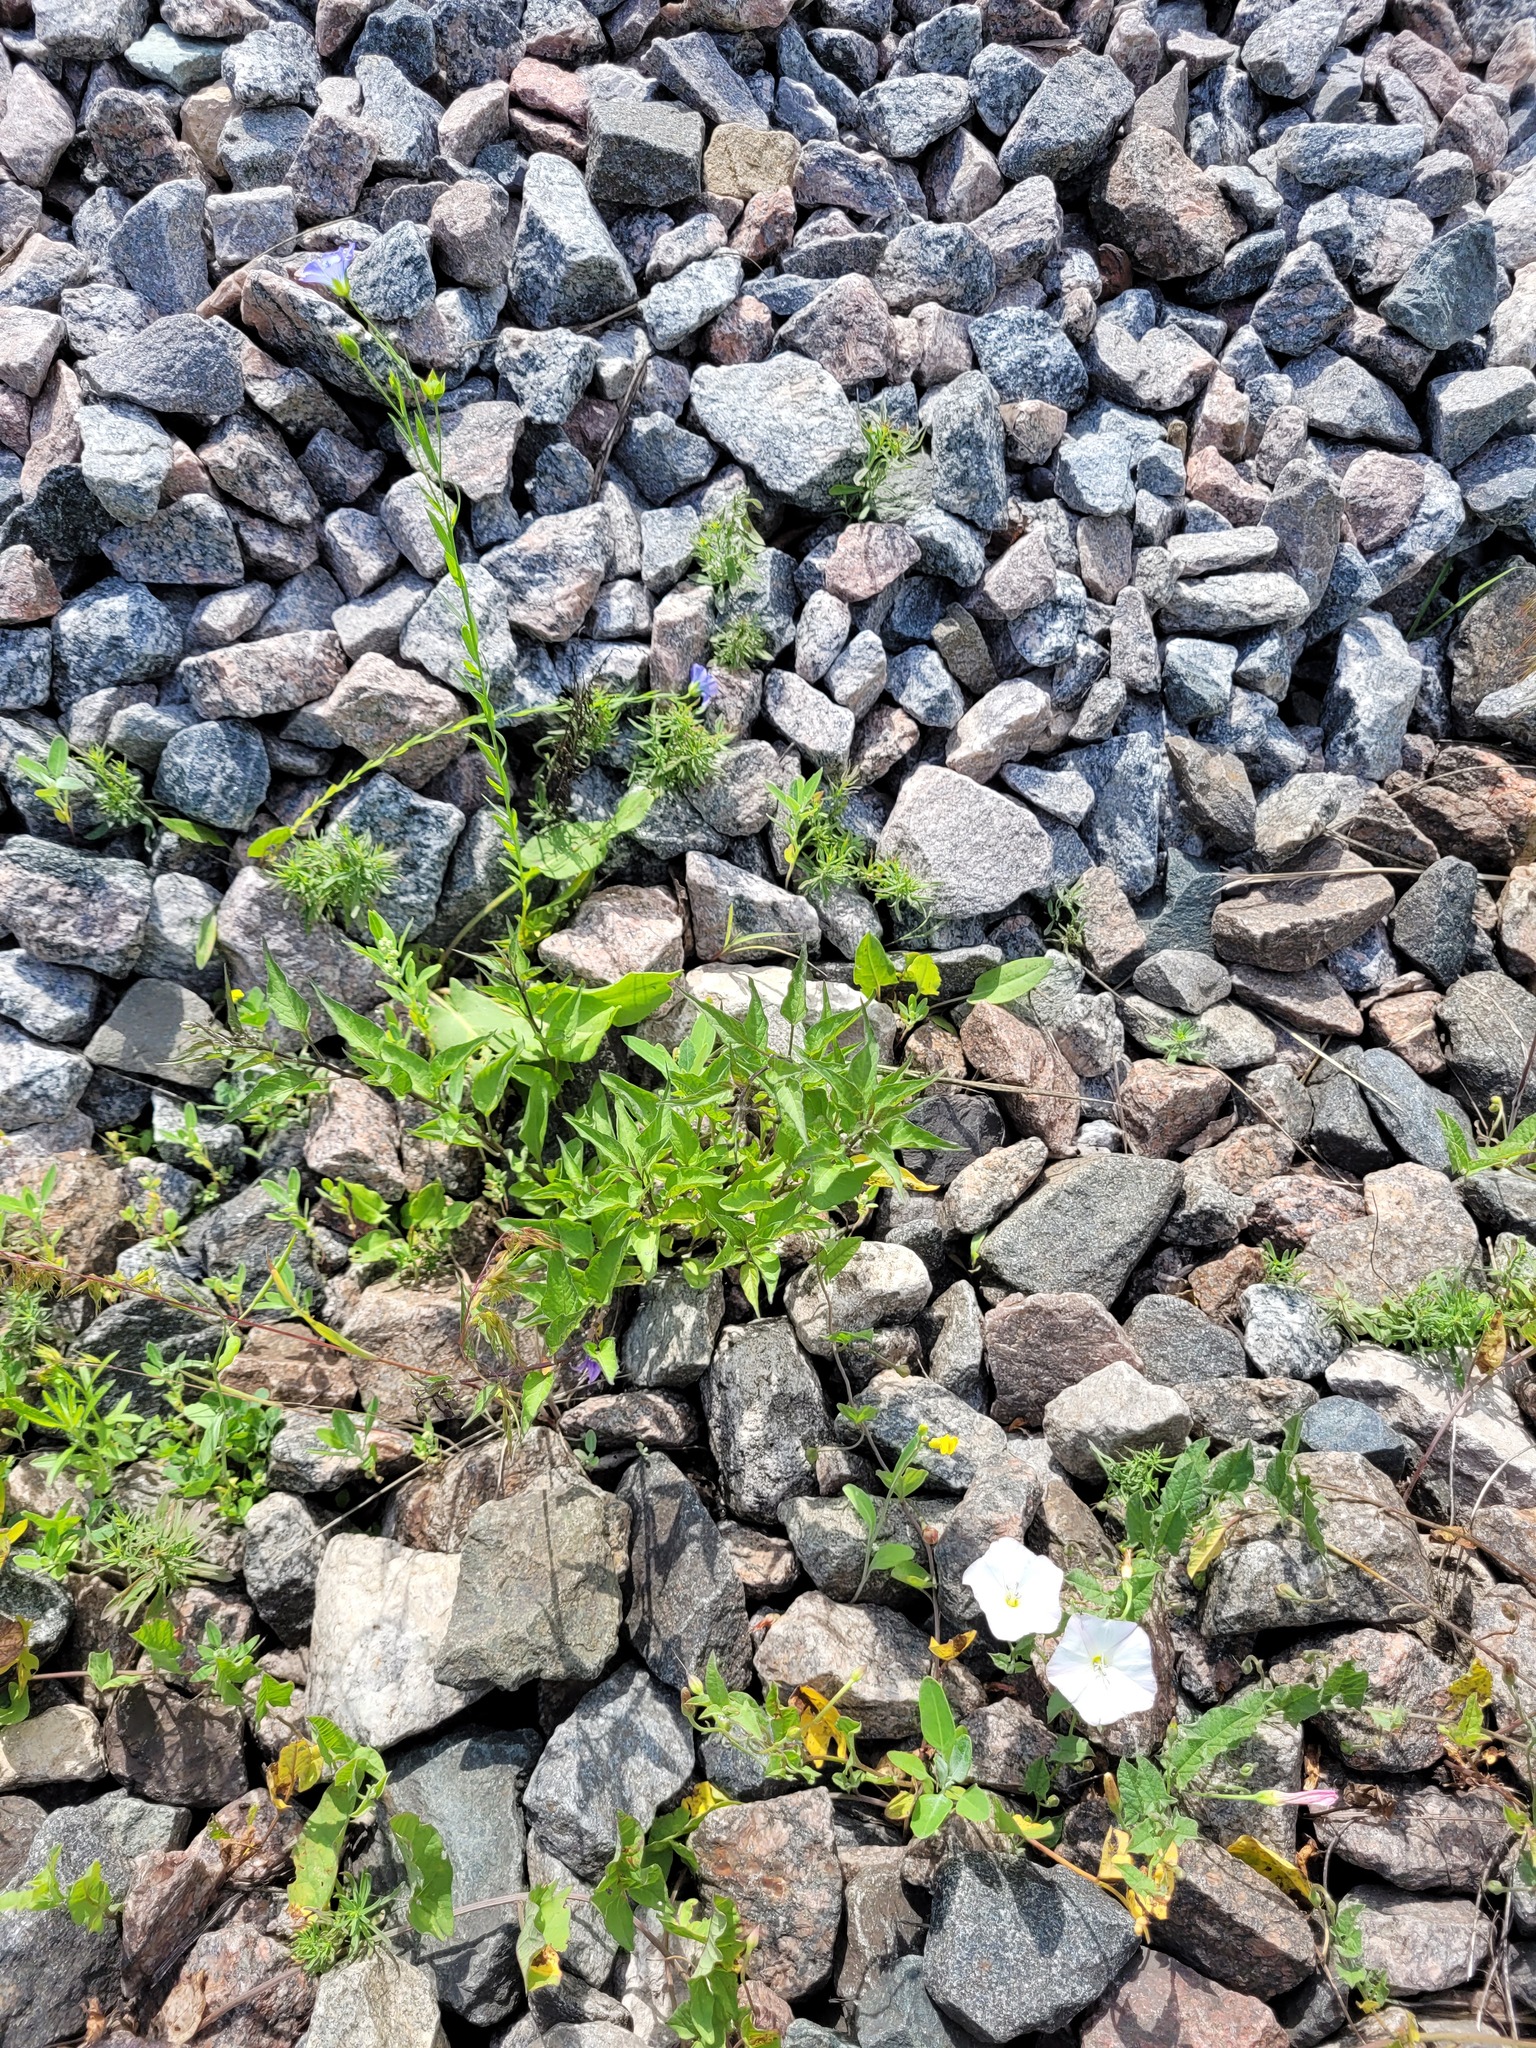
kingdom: Plantae
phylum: Tracheophyta
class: Magnoliopsida
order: Solanales
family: Solanaceae
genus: Solanum
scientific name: Solanum dulcamara
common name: Climbing nightshade
